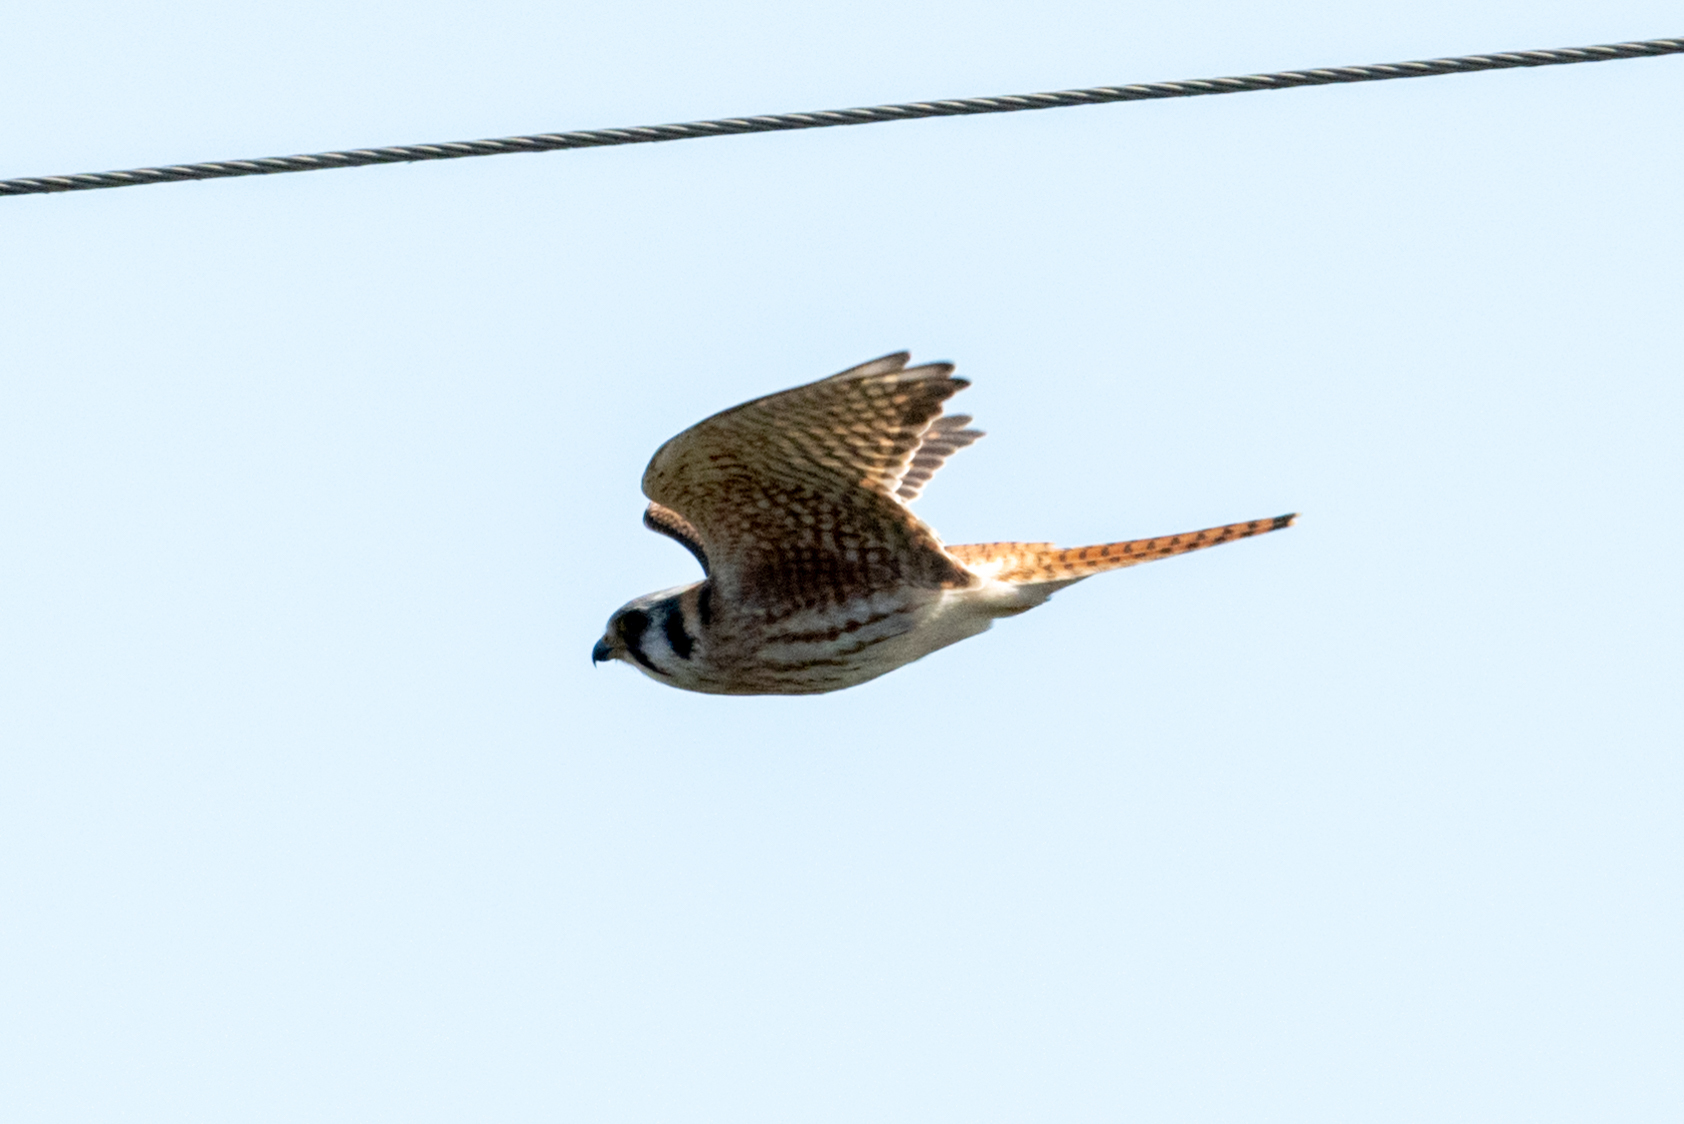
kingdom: Animalia
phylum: Chordata
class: Aves
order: Falconiformes
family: Falconidae
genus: Falco
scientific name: Falco sparverius
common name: American kestrel
